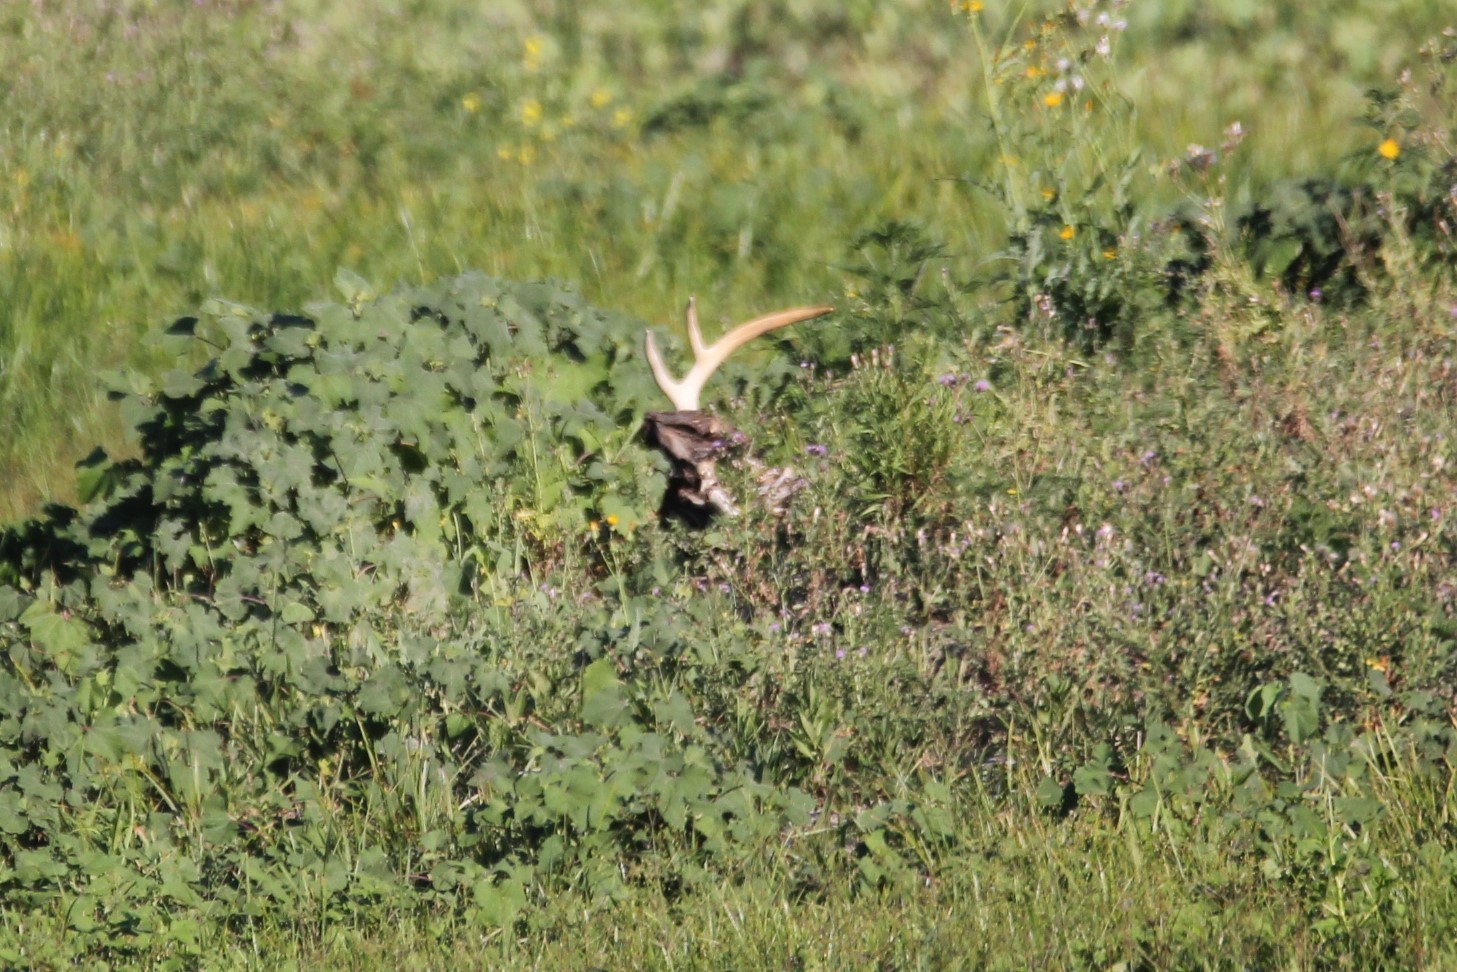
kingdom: Animalia
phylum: Chordata
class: Mammalia
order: Artiodactyla
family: Cervidae
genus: Odocoileus
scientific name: Odocoileus virginianus
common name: White-tailed deer
